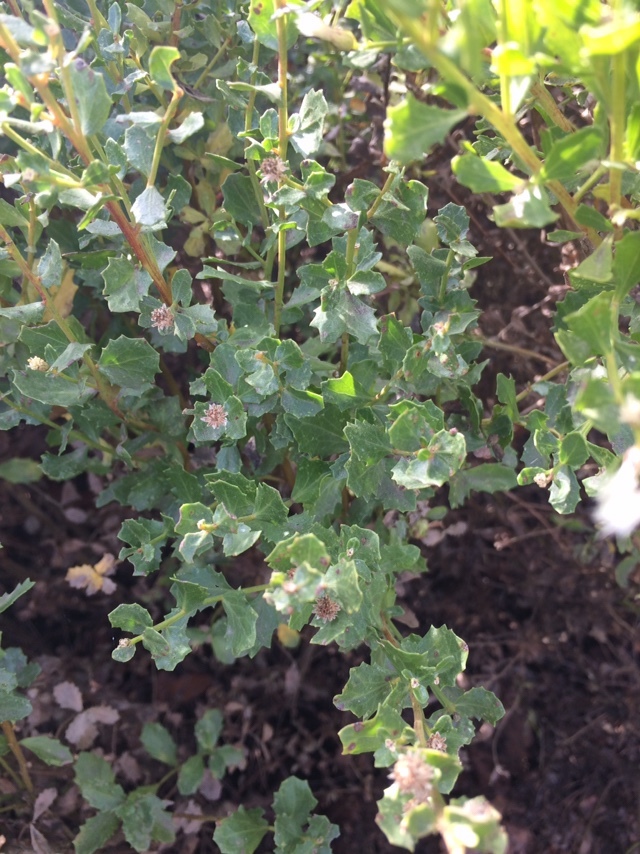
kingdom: Plantae
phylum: Tracheophyta
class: Magnoliopsida
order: Asterales
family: Asteraceae
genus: Baccharis
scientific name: Baccharis pilularis
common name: Coyotebrush
